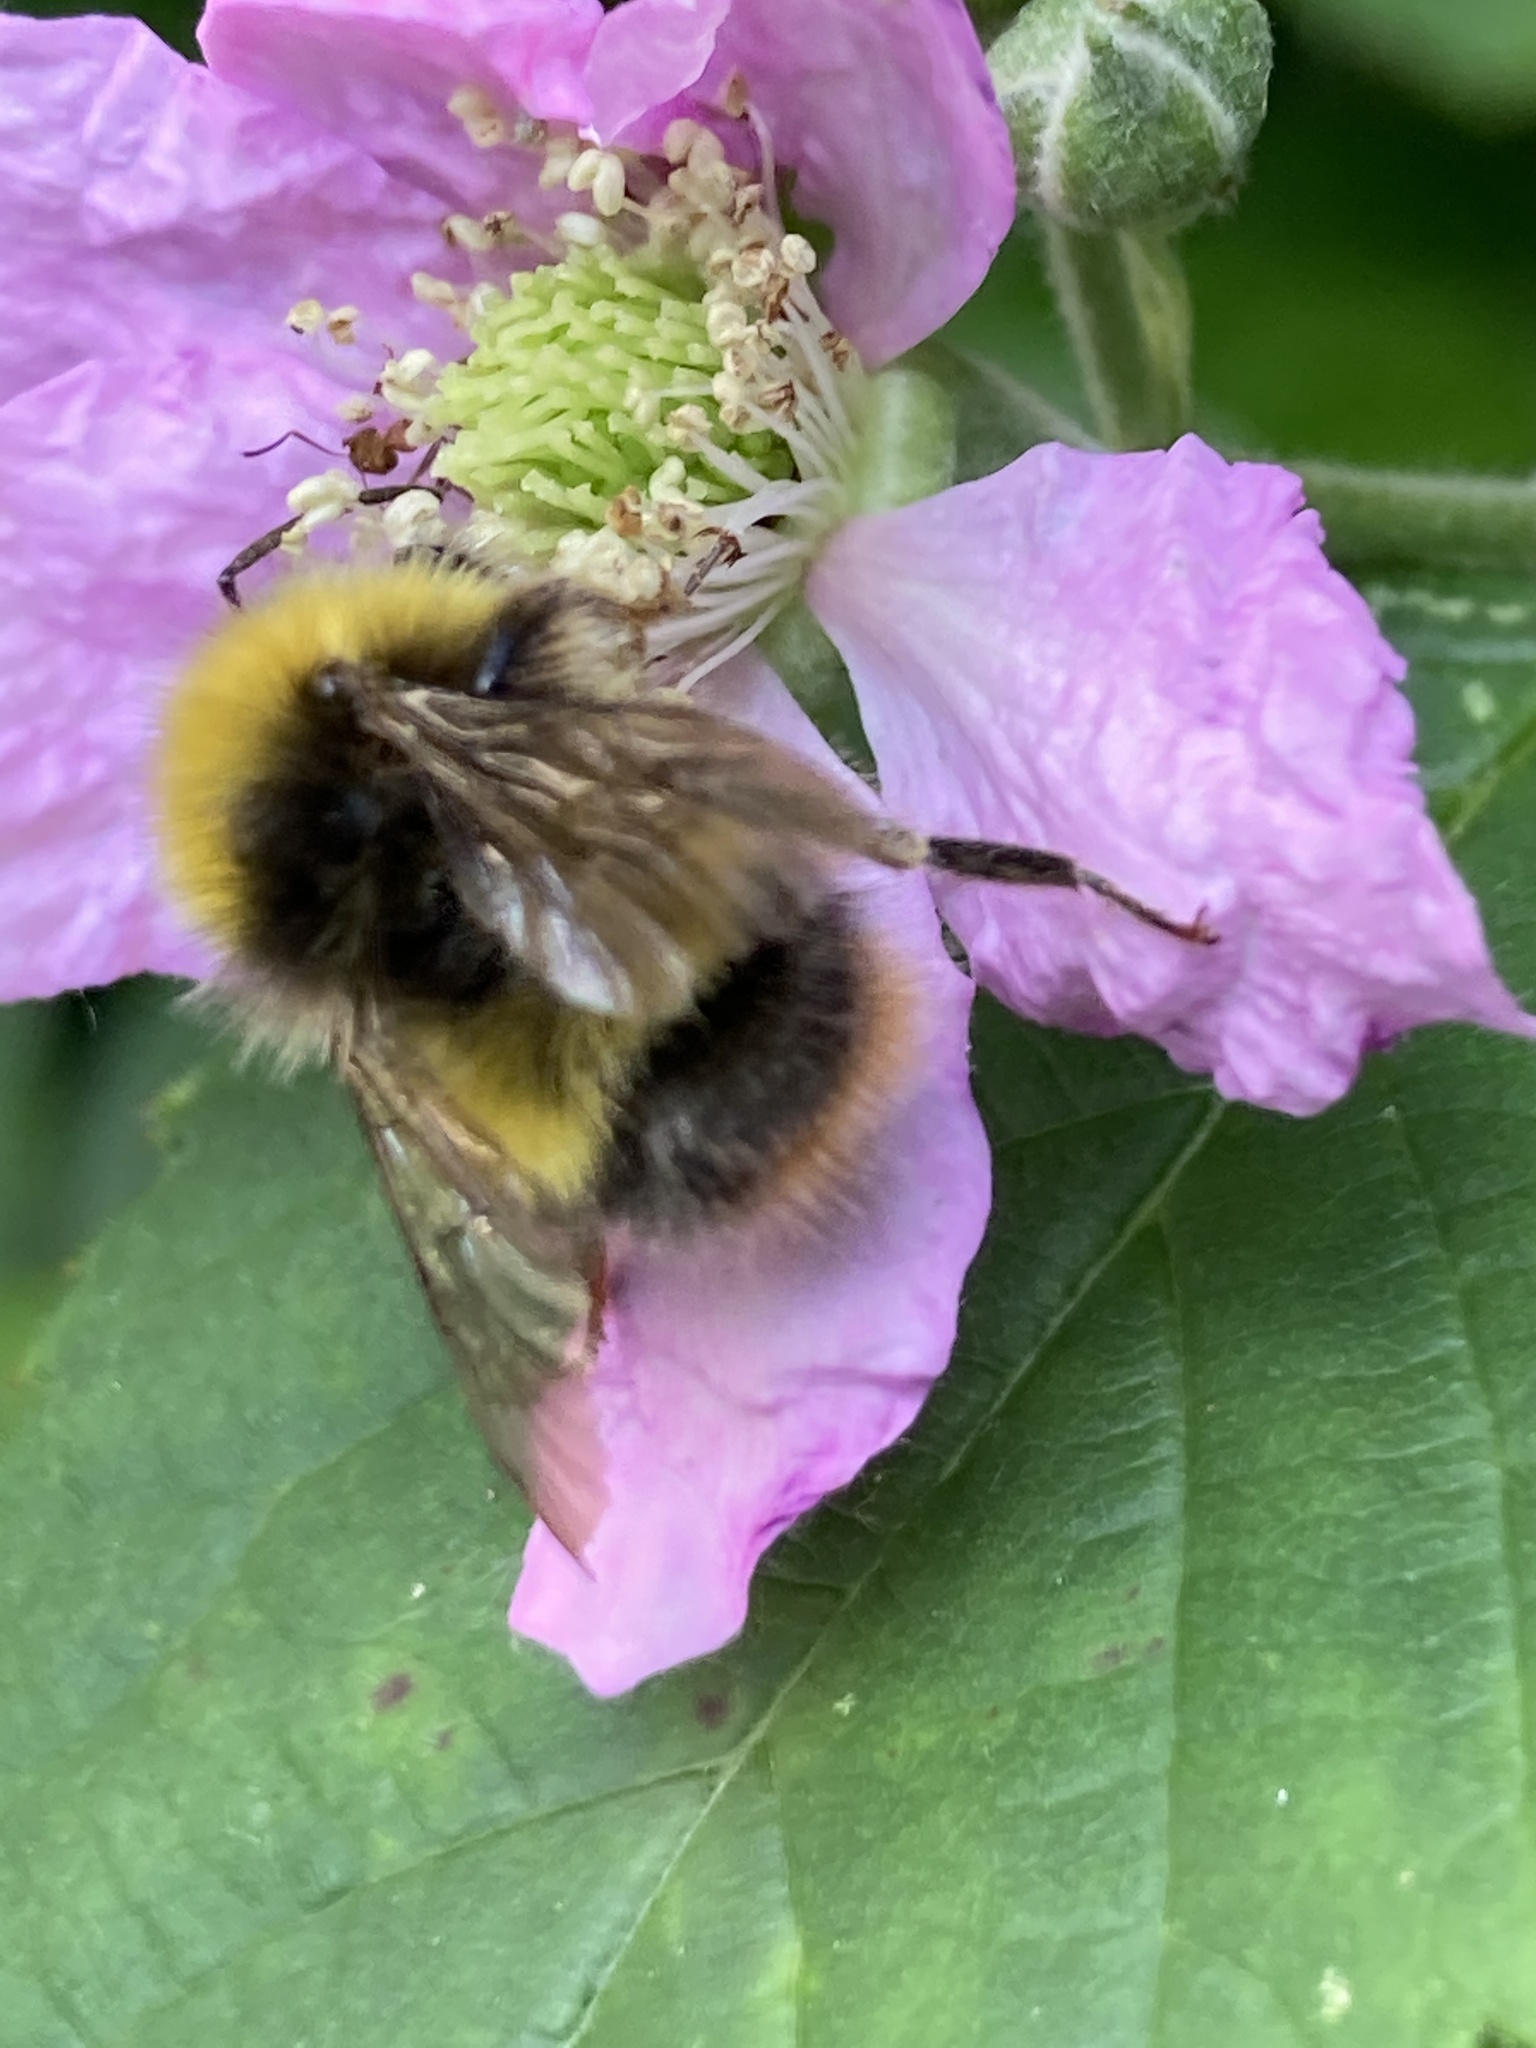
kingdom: Animalia
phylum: Arthropoda
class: Insecta
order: Hymenoptera
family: Apidae
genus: Bombus
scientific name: Bombus pratorum
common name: Early humble-bee
